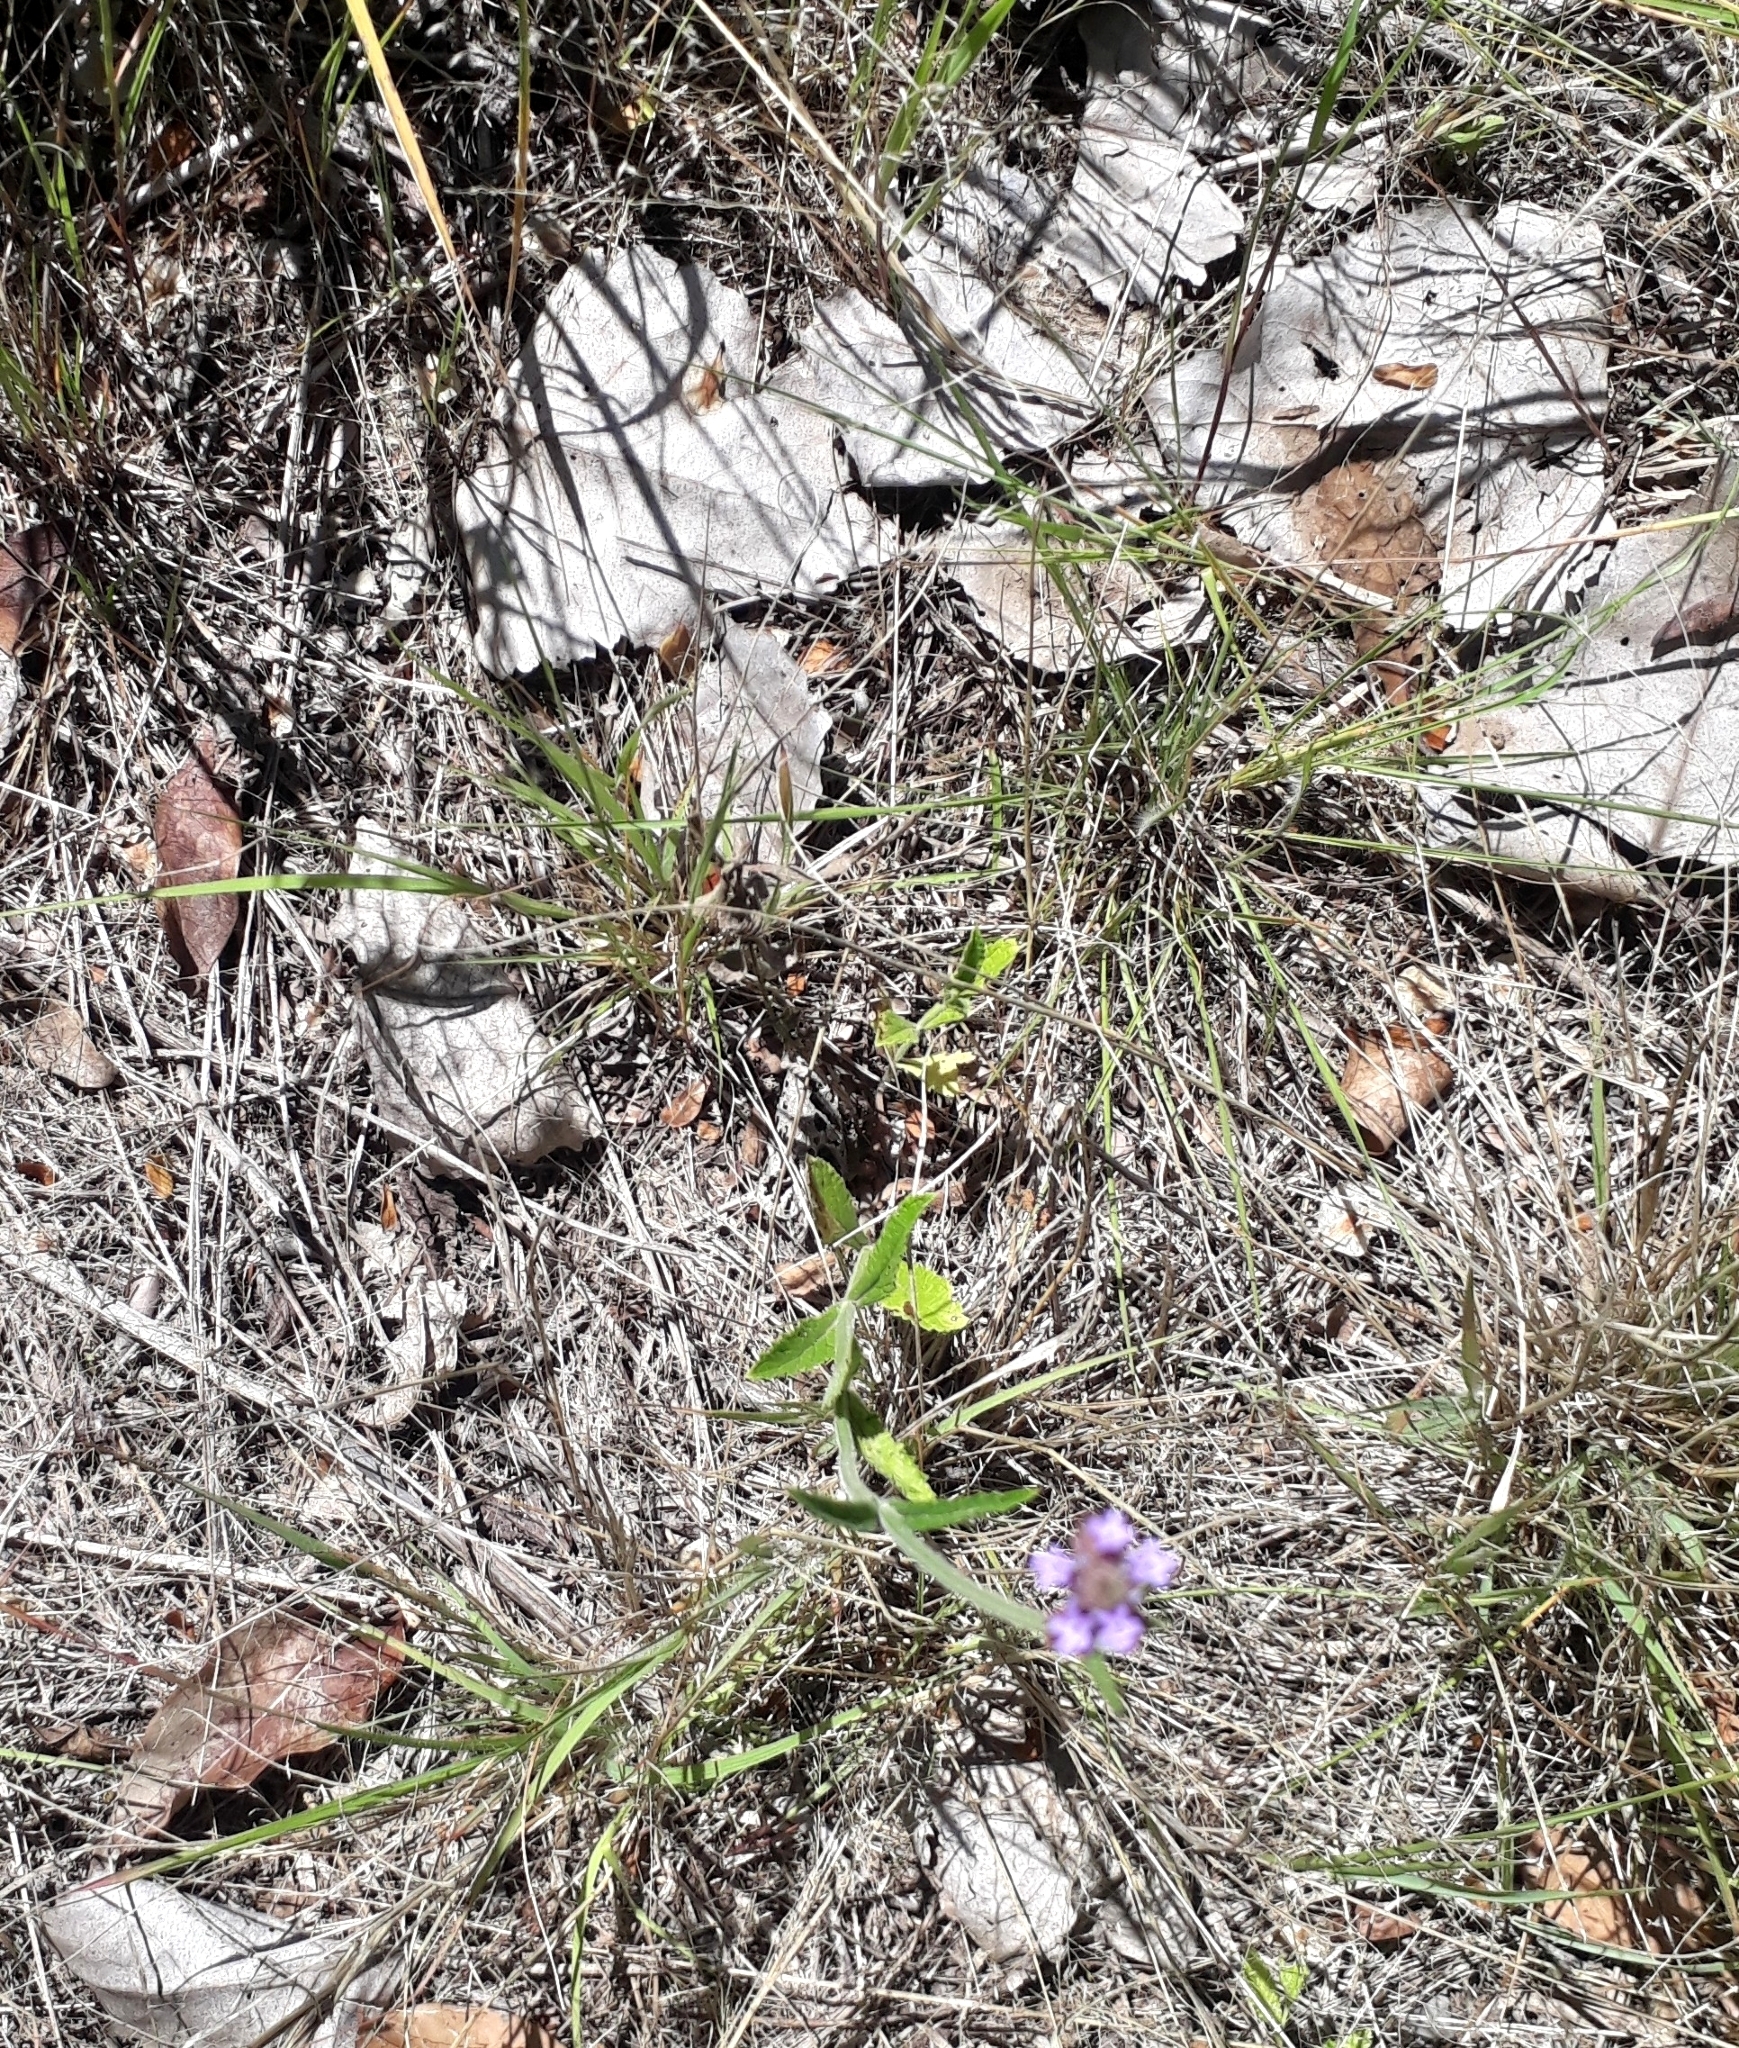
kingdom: Plantae
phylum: Tracheophyta
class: Magnoliopsida
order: Lamiales
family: Verbenaceae
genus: Verbena
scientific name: Verbena bonariensis
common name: Purpletop vervain
